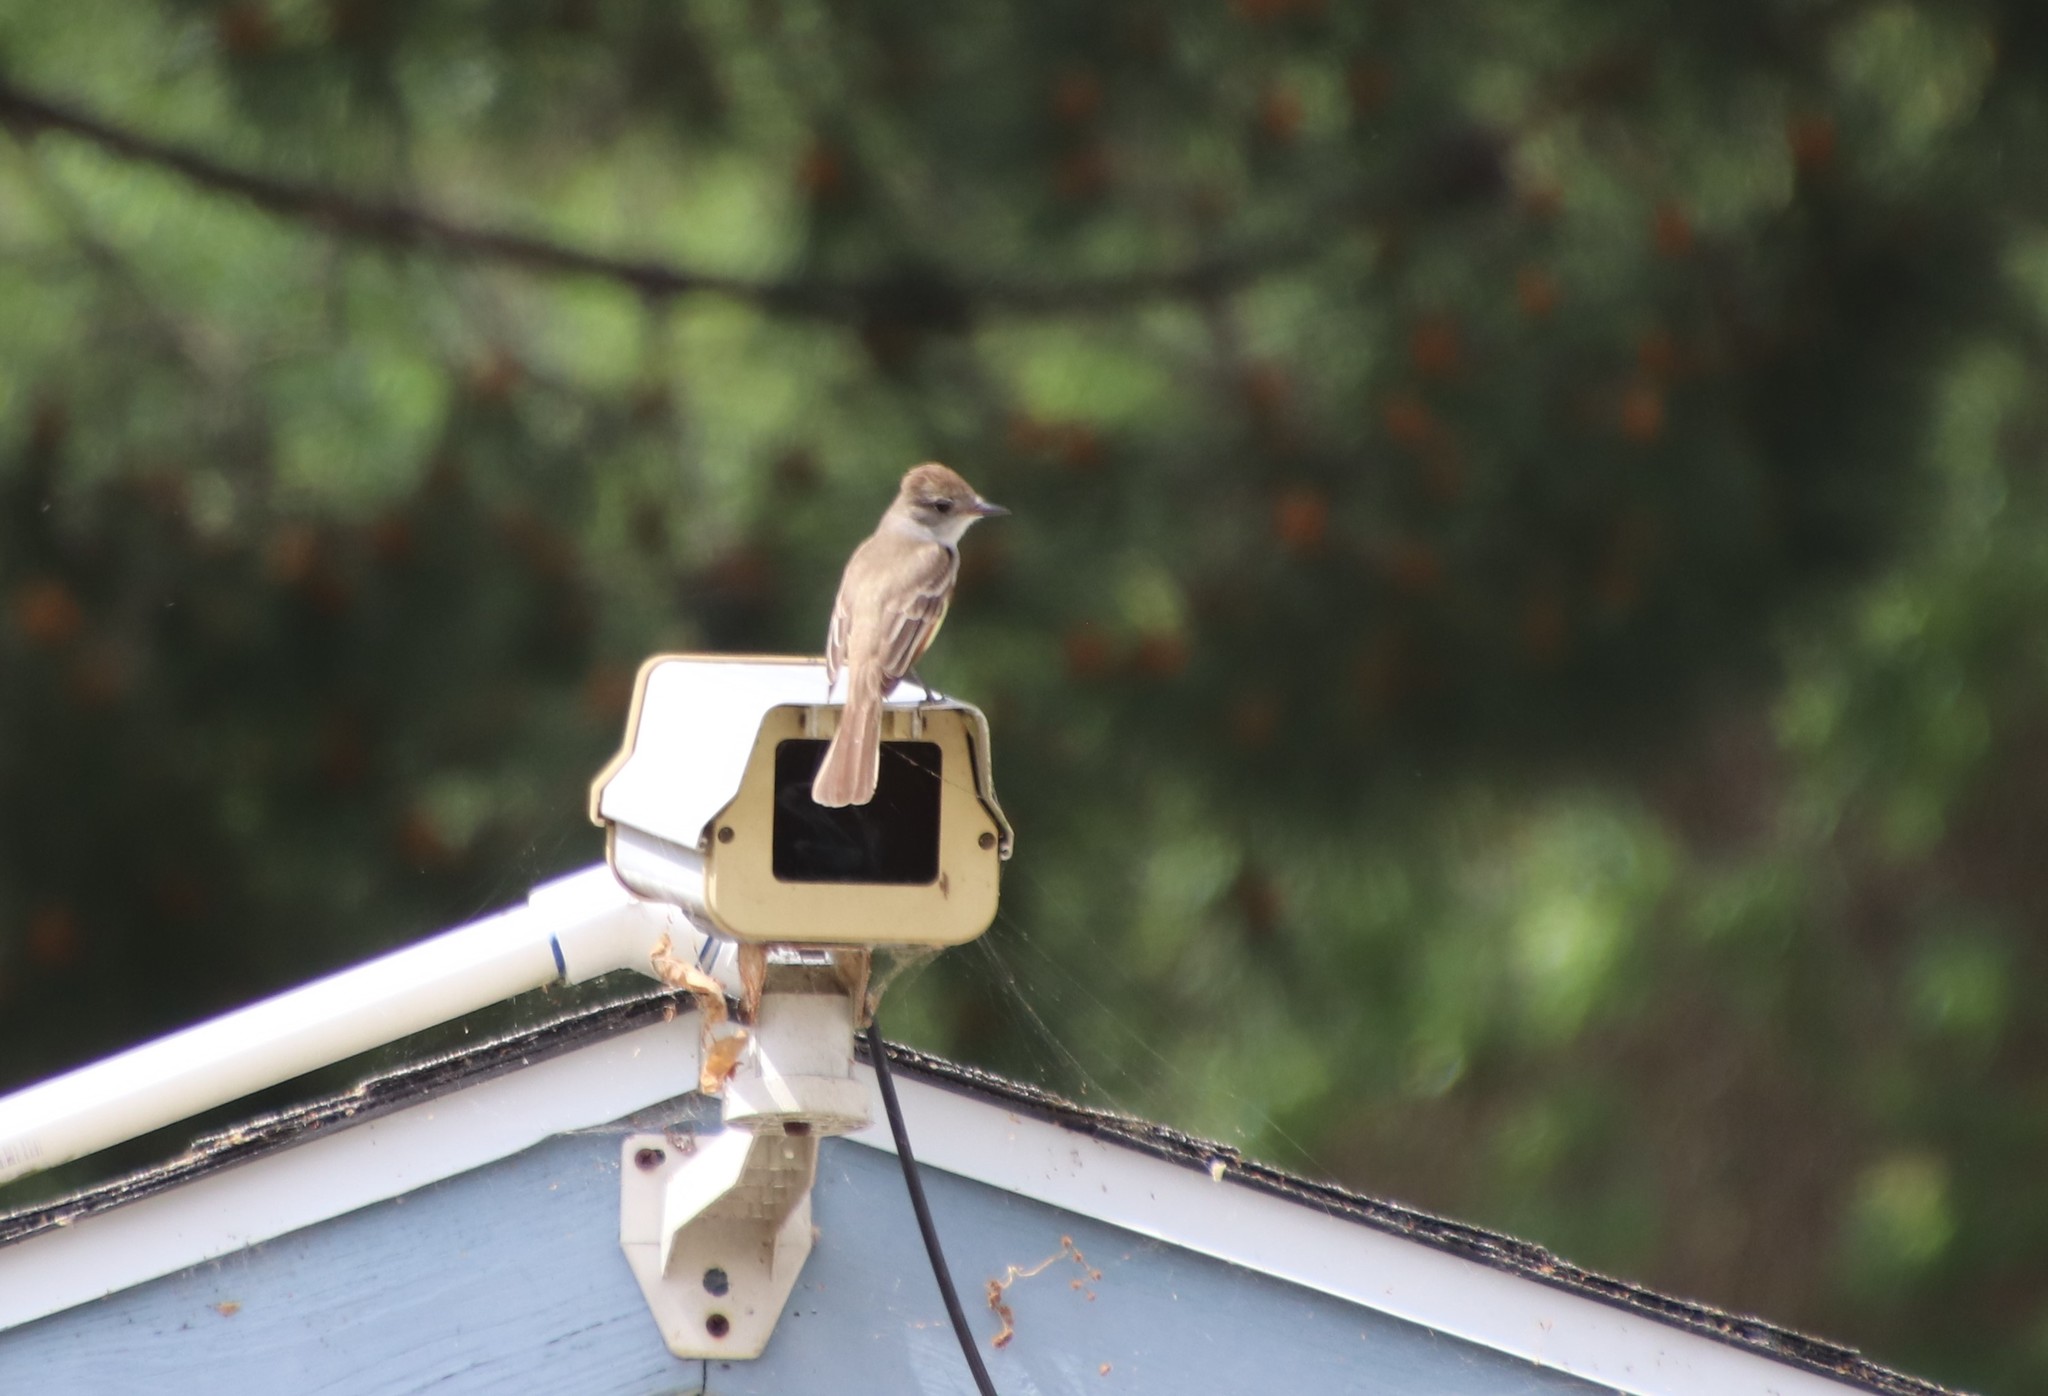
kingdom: Animalia
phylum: Chordata
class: Aves
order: Passeriformes
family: Tyrannidae
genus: Myiarchus
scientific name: Myiarchus cinerascens
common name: Ash-throated flycatcher
